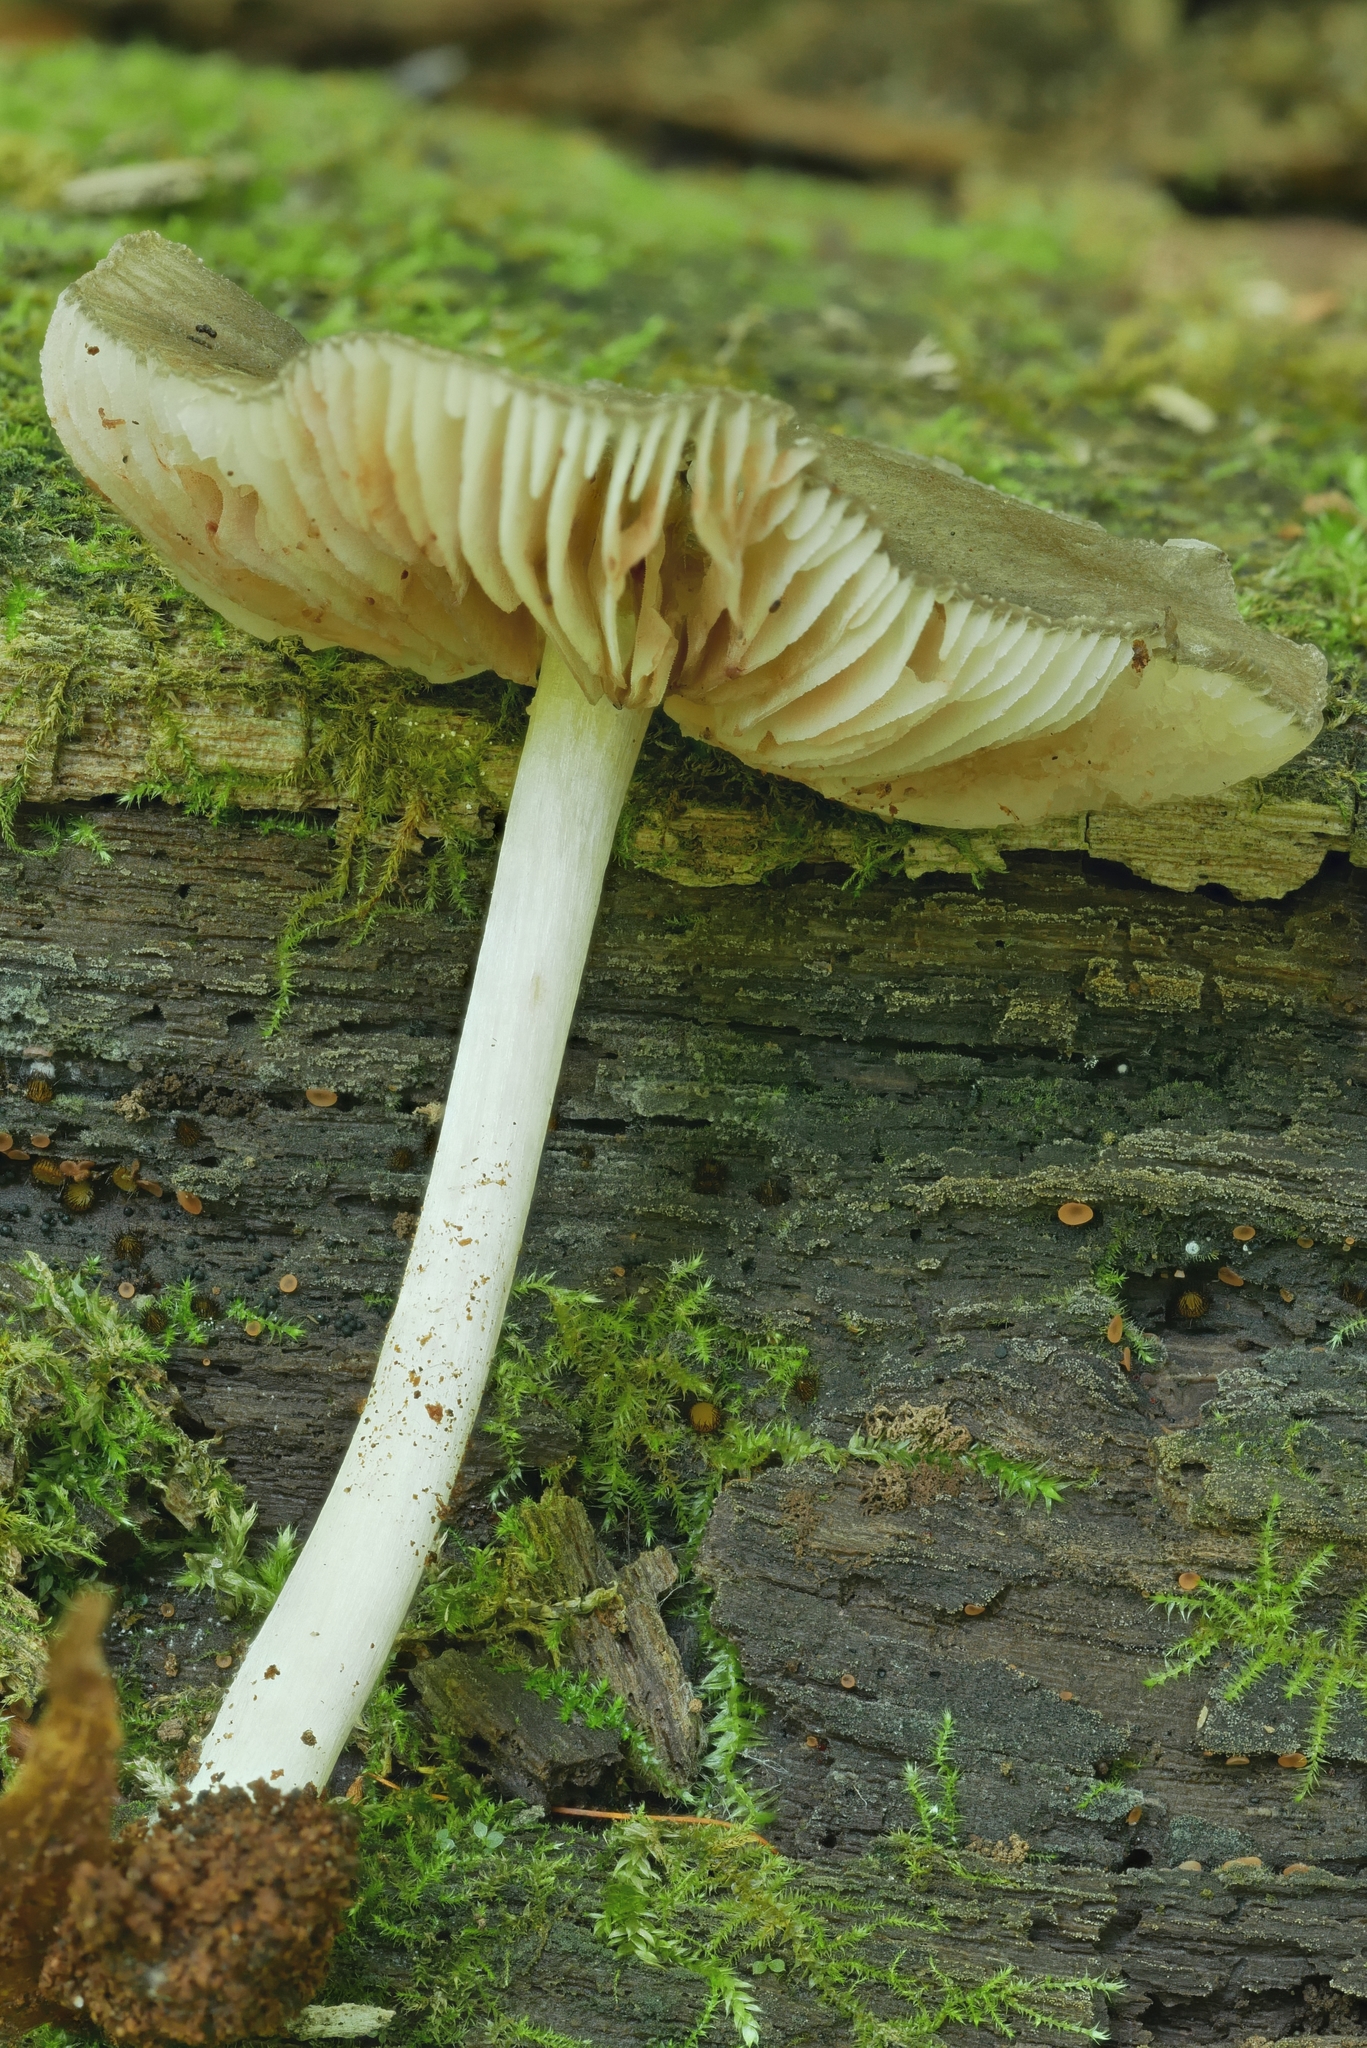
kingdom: Fungi
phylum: Basidiomycota
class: Agaricomycetes
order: Agaricales
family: Pluteaceae
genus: Pluteus
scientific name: Pluteus americanus
